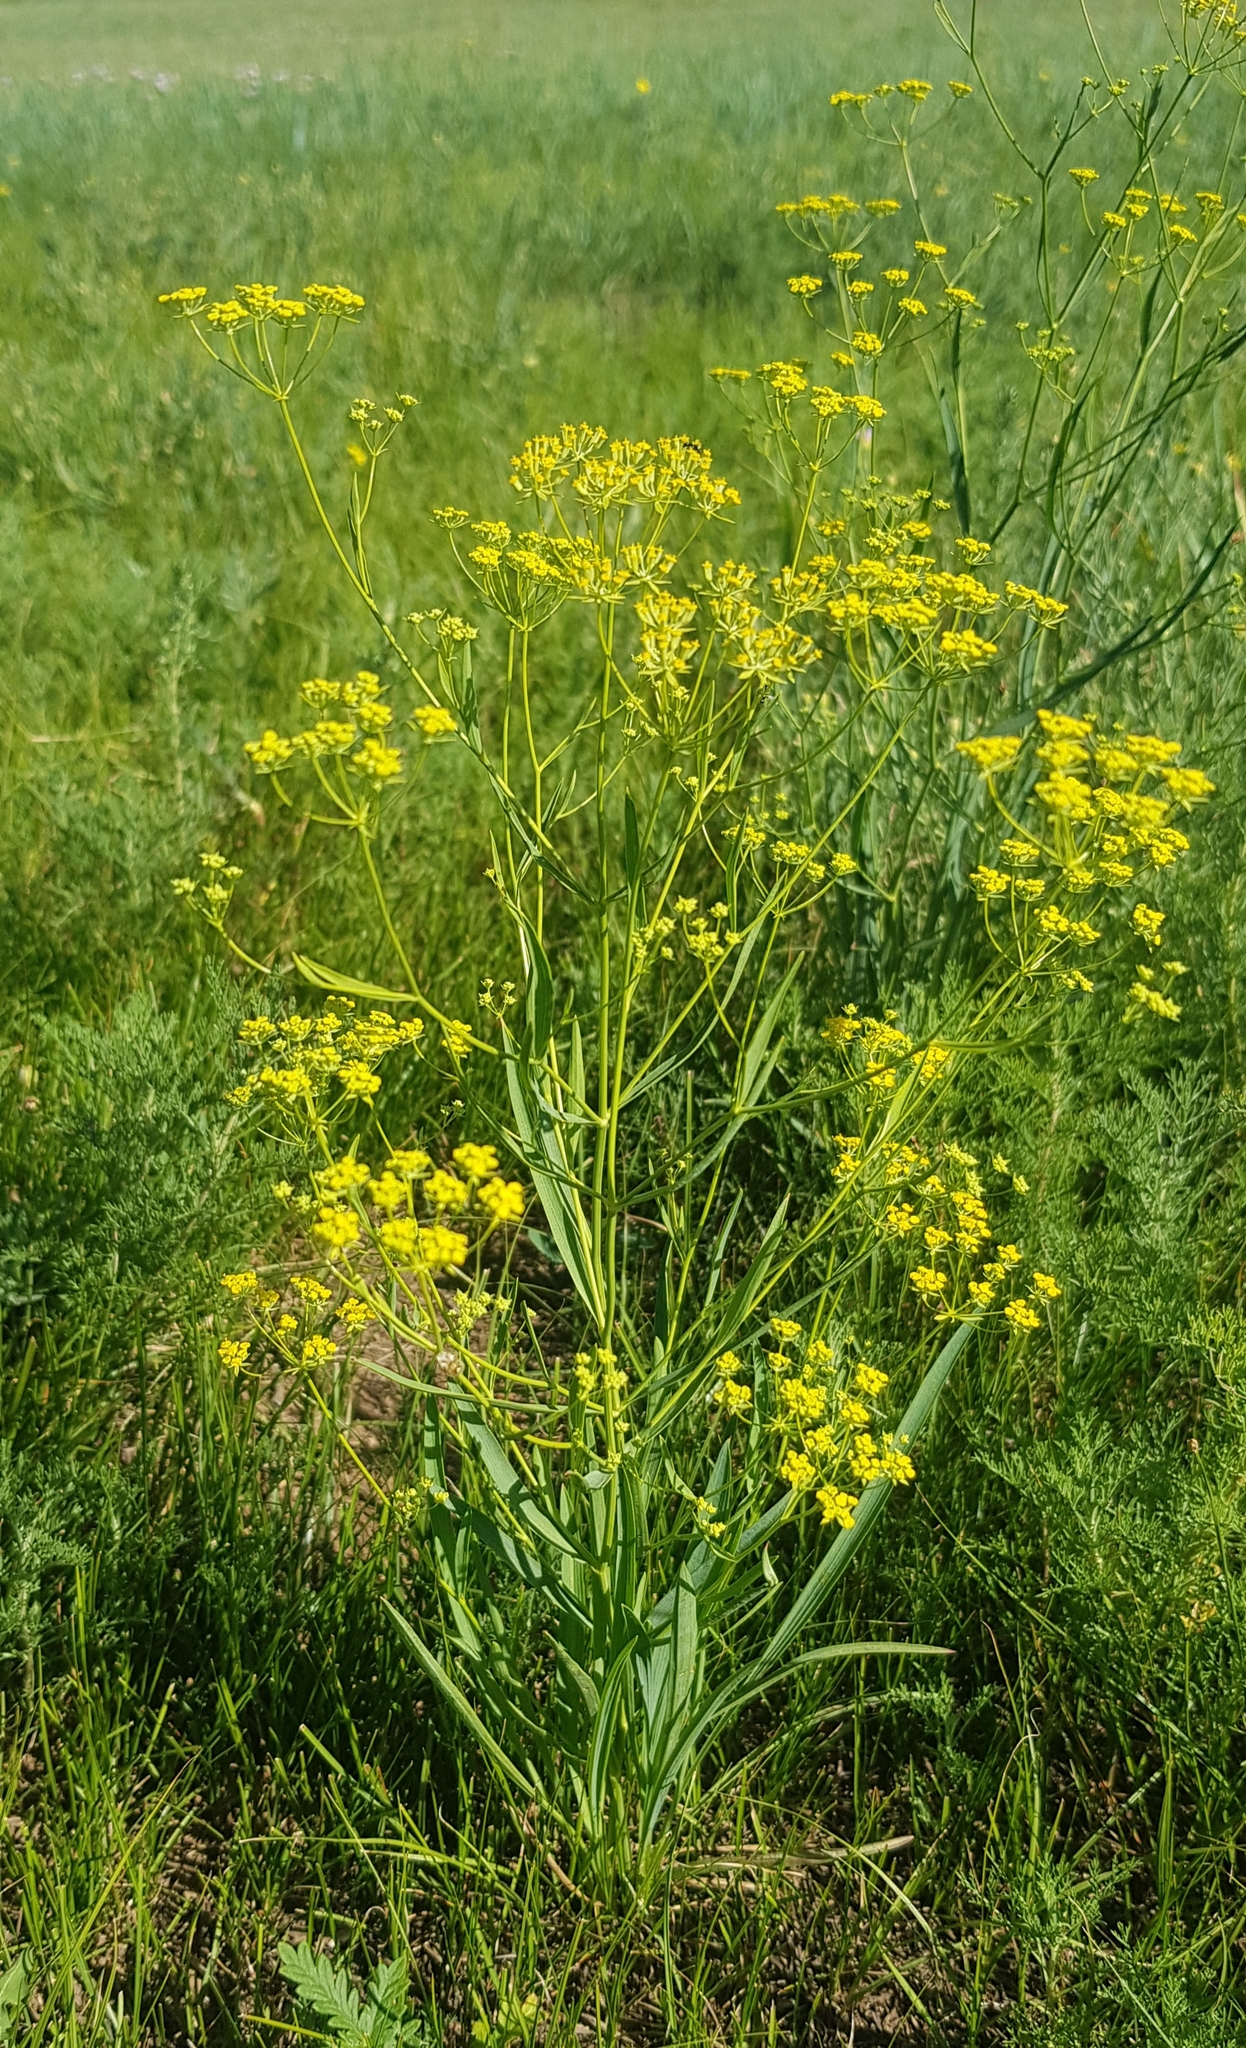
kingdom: Plantae
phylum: Tracheophyta
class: Magnoliopsida
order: Apiales
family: Apiaceae
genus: Bupleurum
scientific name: Bupleurum sibiricum
